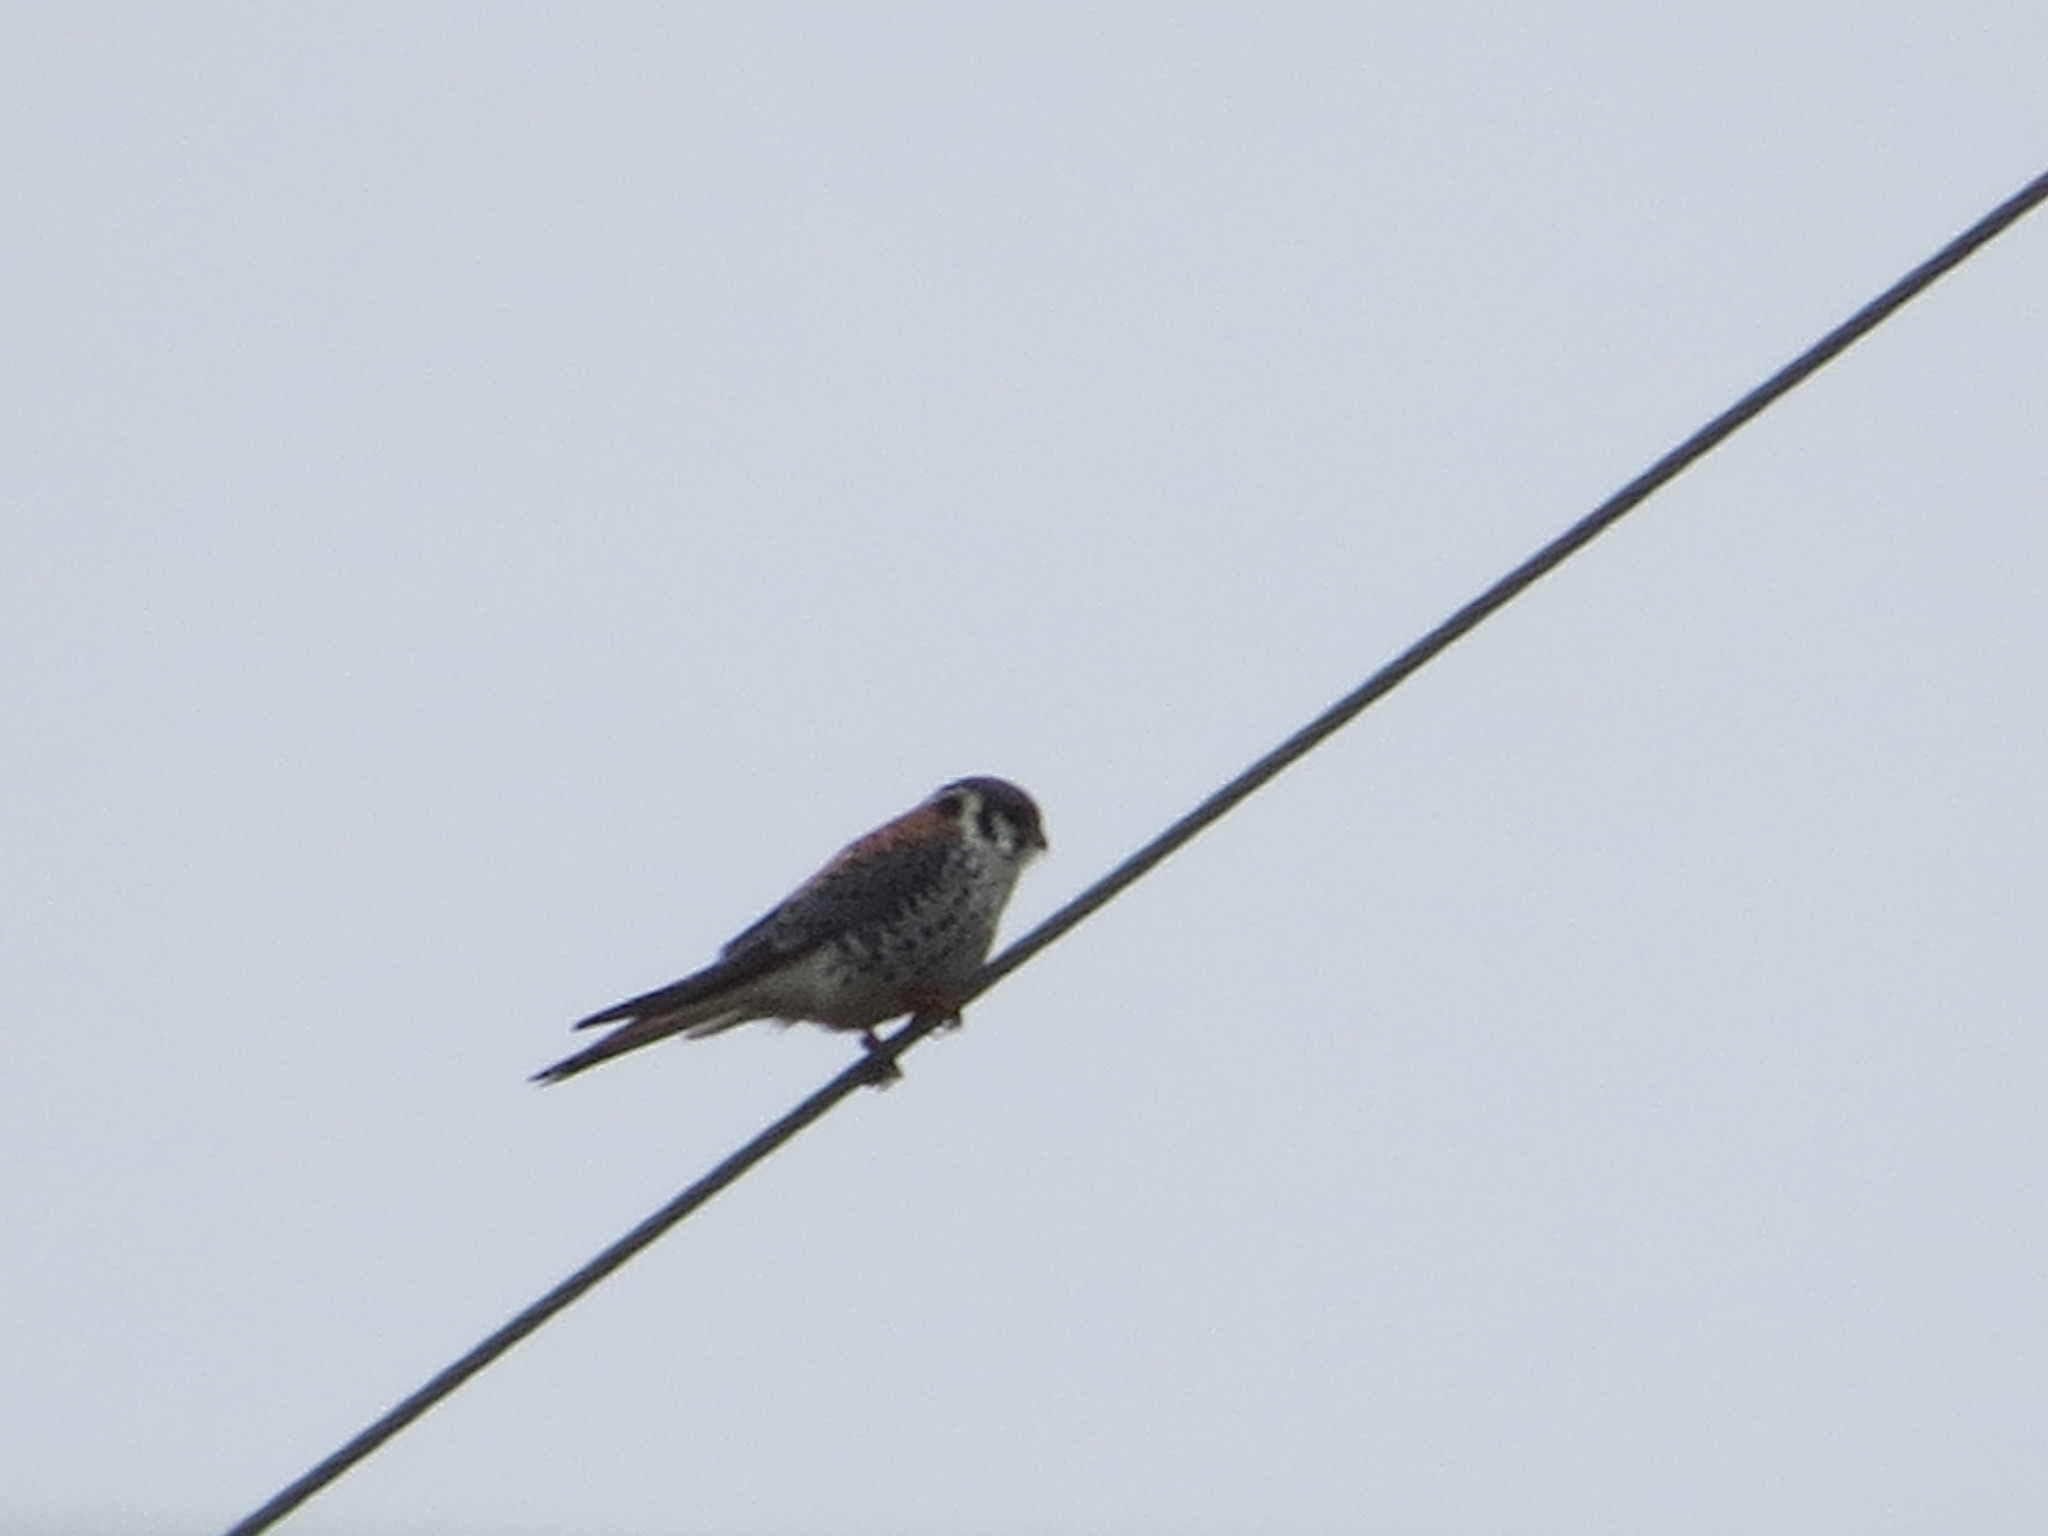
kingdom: Animalia
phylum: Chordata
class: Aves
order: Falconiformes
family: Falconidae
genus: Falco
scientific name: Falco sparverius
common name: American kestrel
